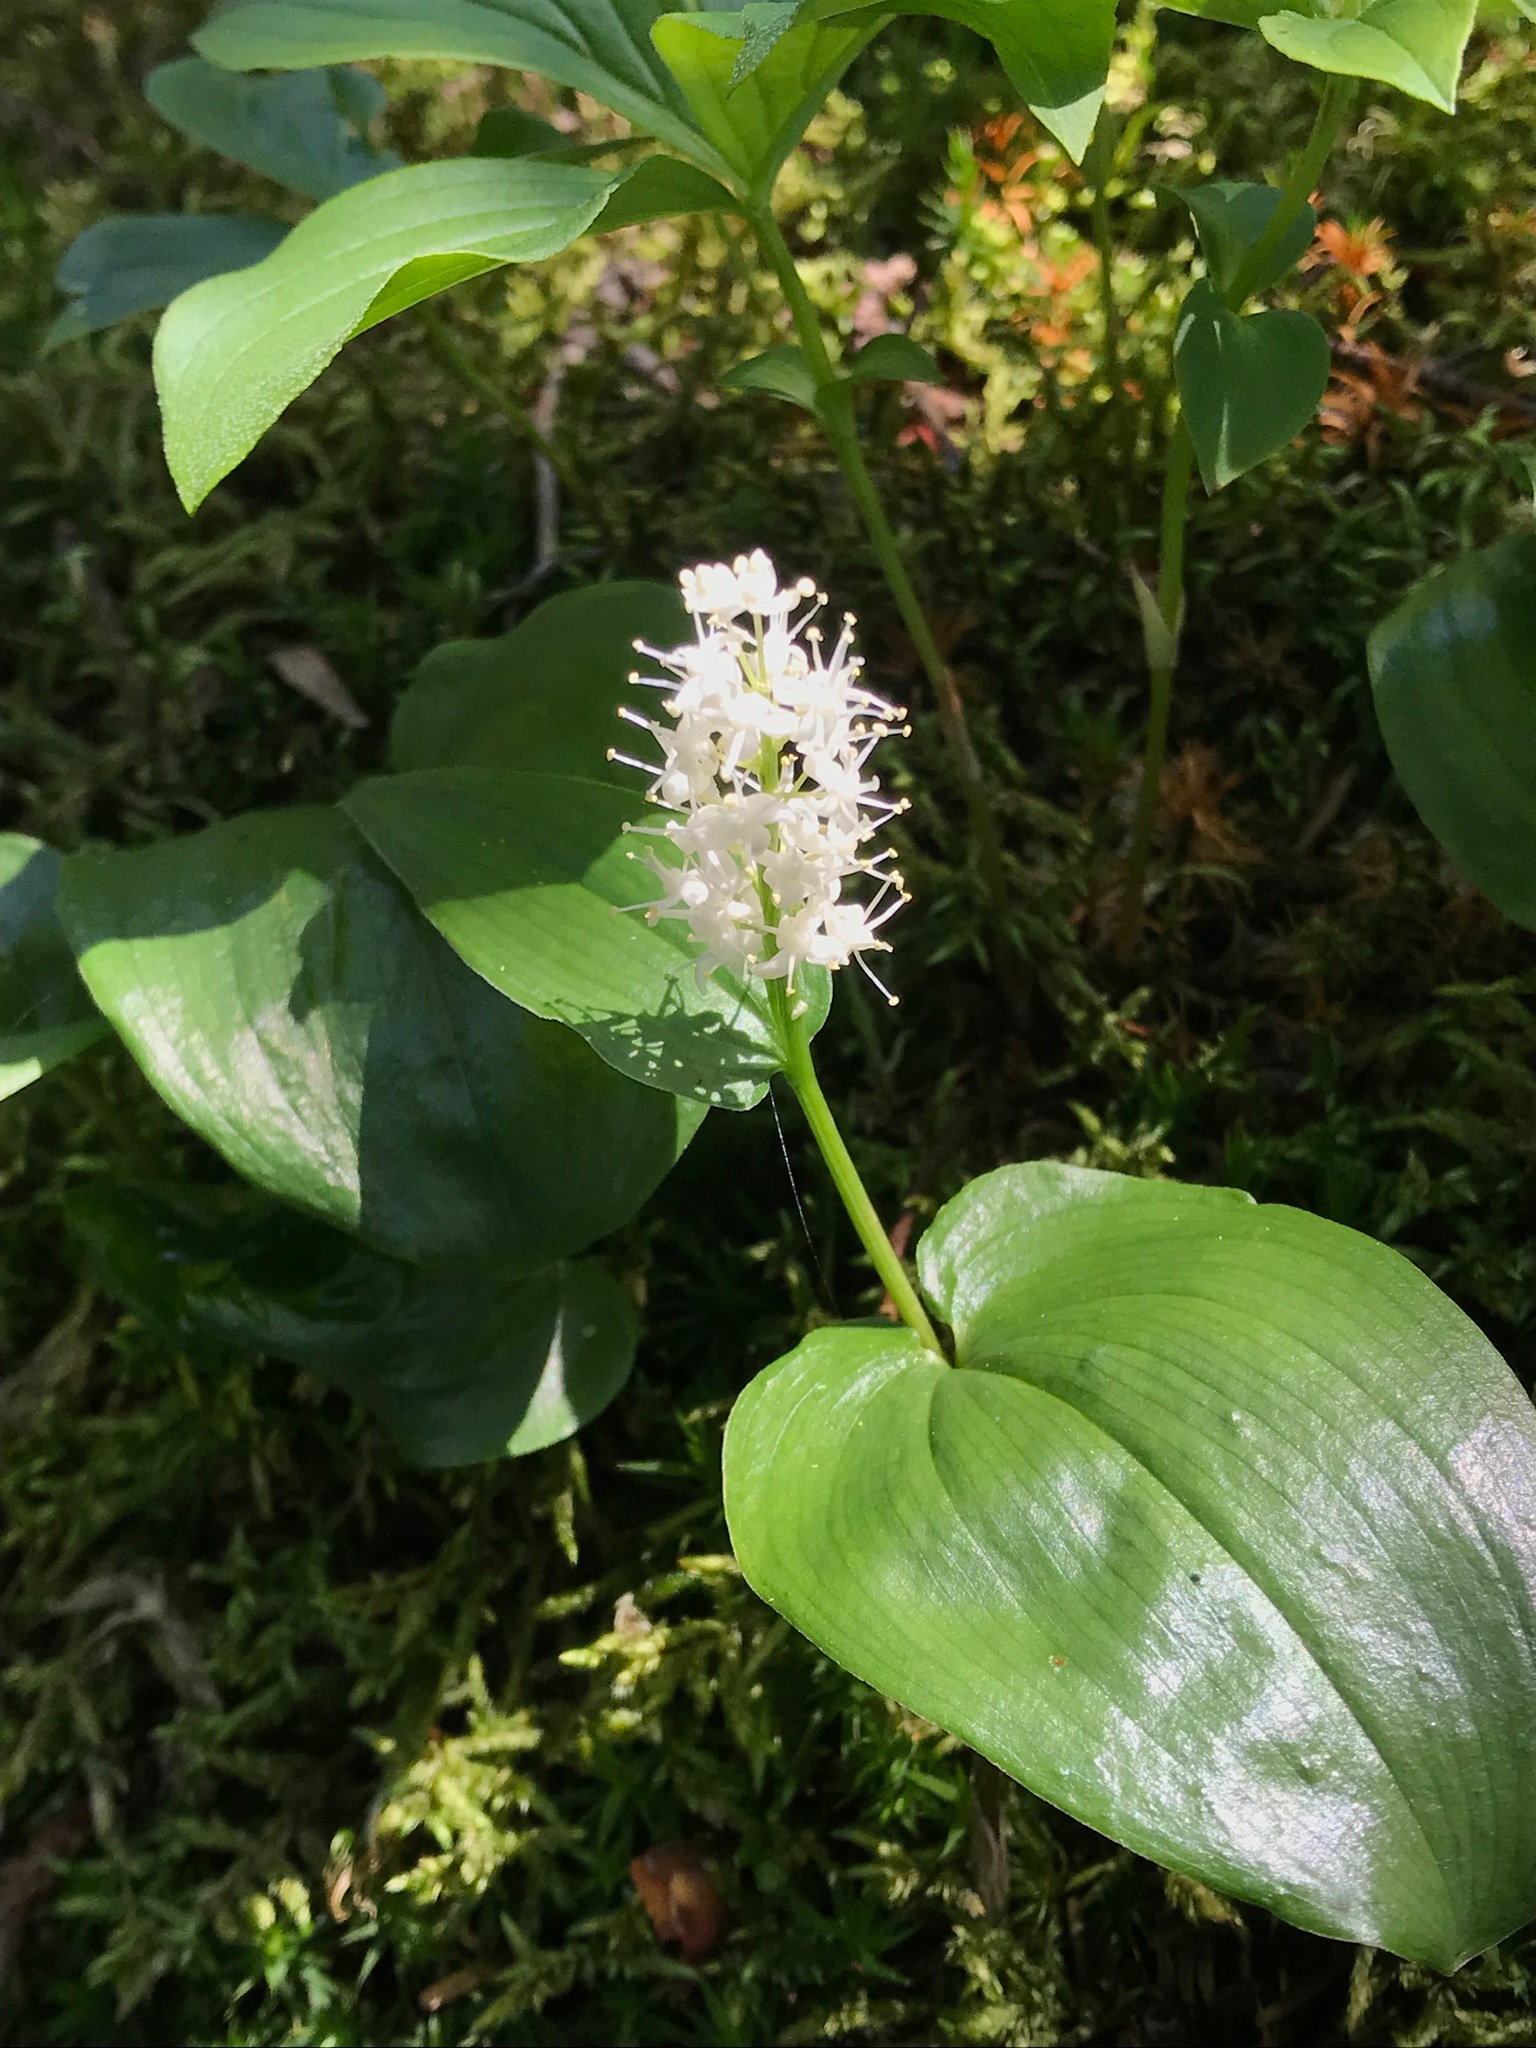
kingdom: Plantae
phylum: Tracheophyta
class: Liliopsida
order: Asparagales
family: Asparagaceae
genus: Maianthemum
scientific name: Maianthemum canadense
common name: False lily-of-the-valley
